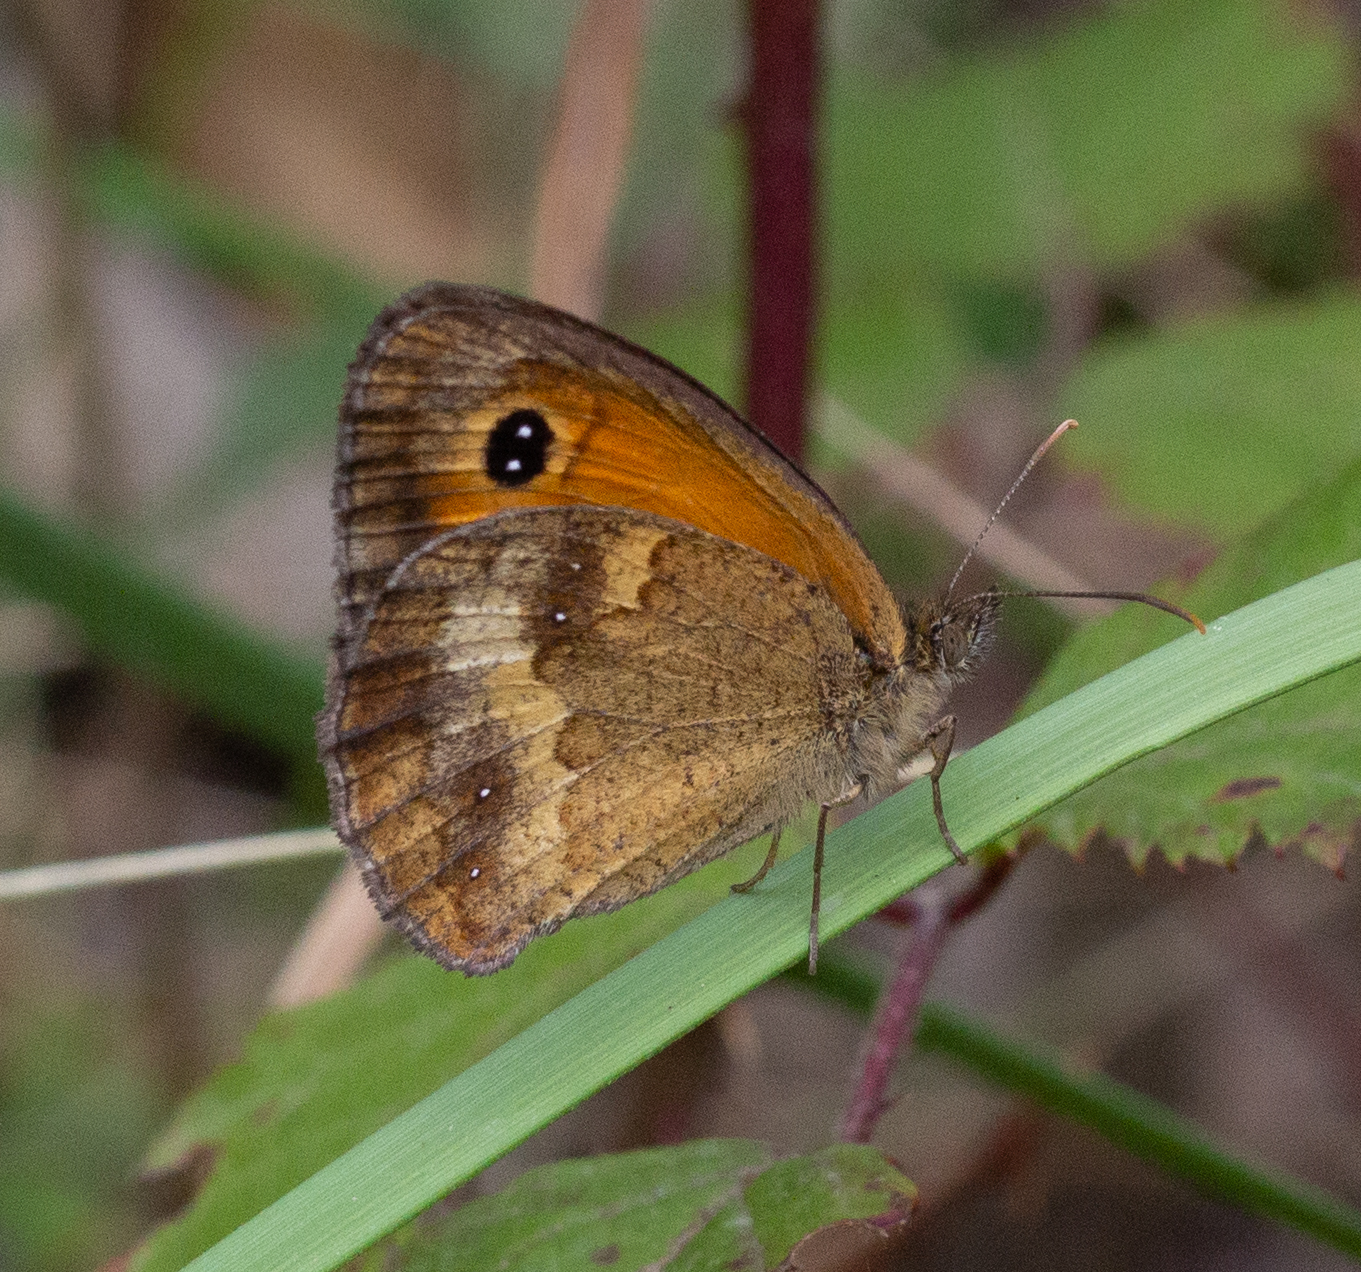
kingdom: Animalia
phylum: Arthropoda
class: Insecta
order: Lepidoptera
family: Nymphalidae
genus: Pyronia
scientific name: Pyronia tithonus
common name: Gatekeeper
